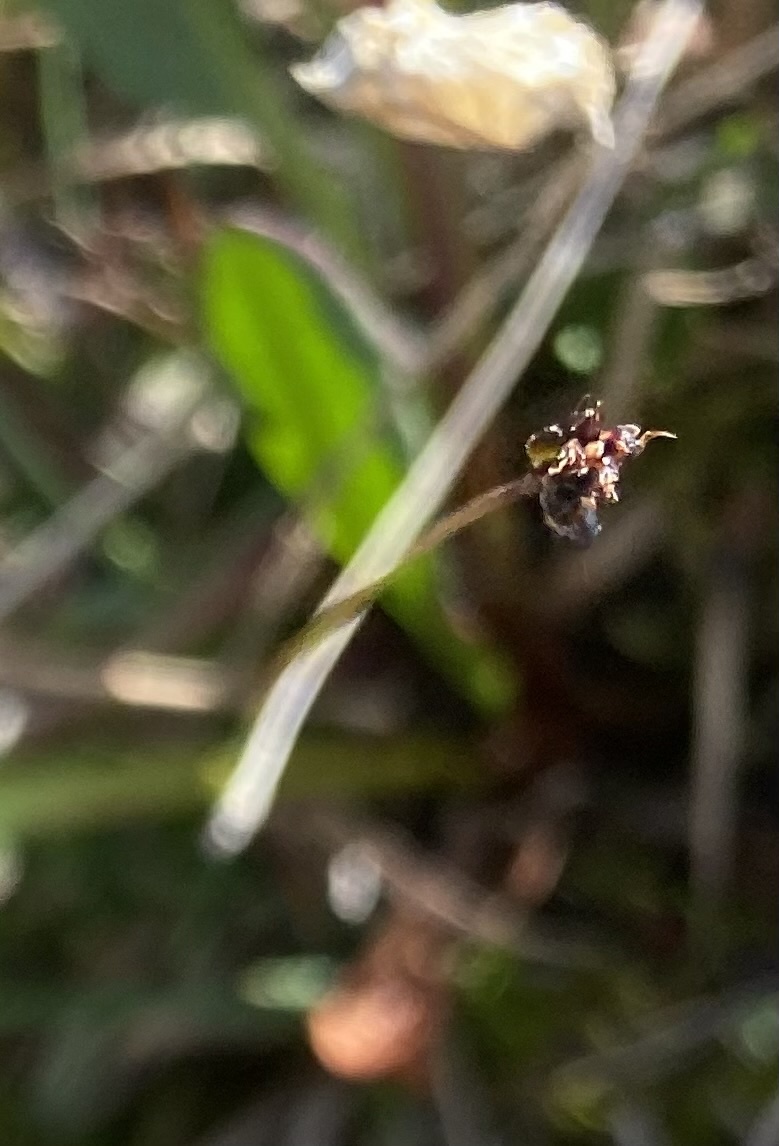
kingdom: Plantae
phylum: Tracheophyta
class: Liliopsida
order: Poales
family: Juncaceae
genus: Luzula
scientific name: Luzula confusa
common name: Northern wood rush
